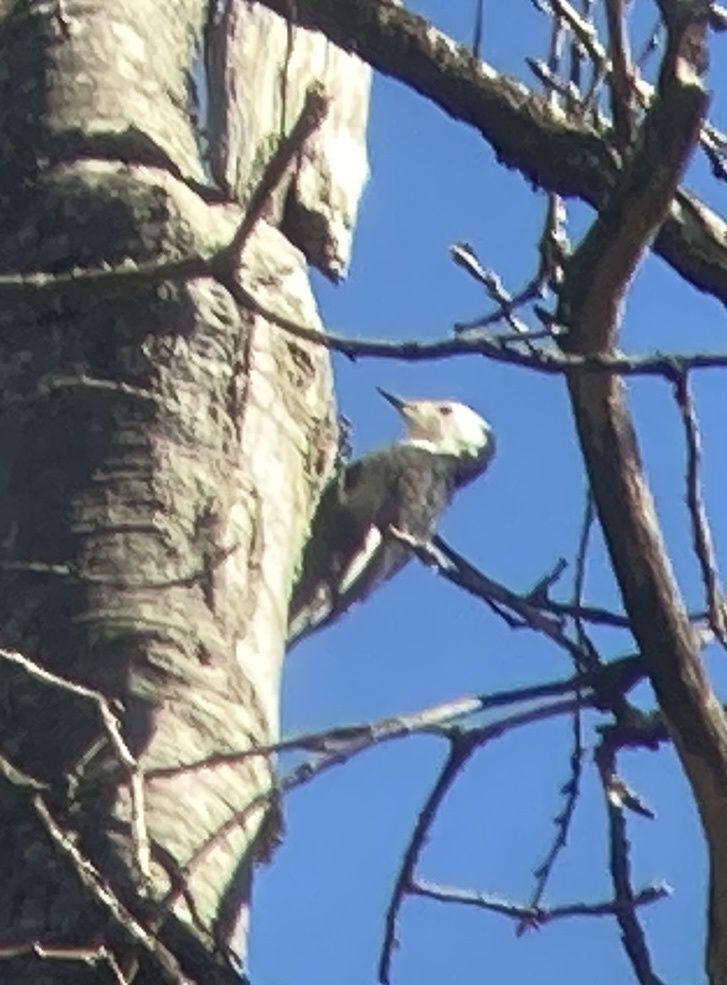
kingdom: Animalia
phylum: Chordata
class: Aves
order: Piciformes
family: Picidae
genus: Leuconotopicus
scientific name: Leuconotopicus albolarvatus
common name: White-headed woodpecker
